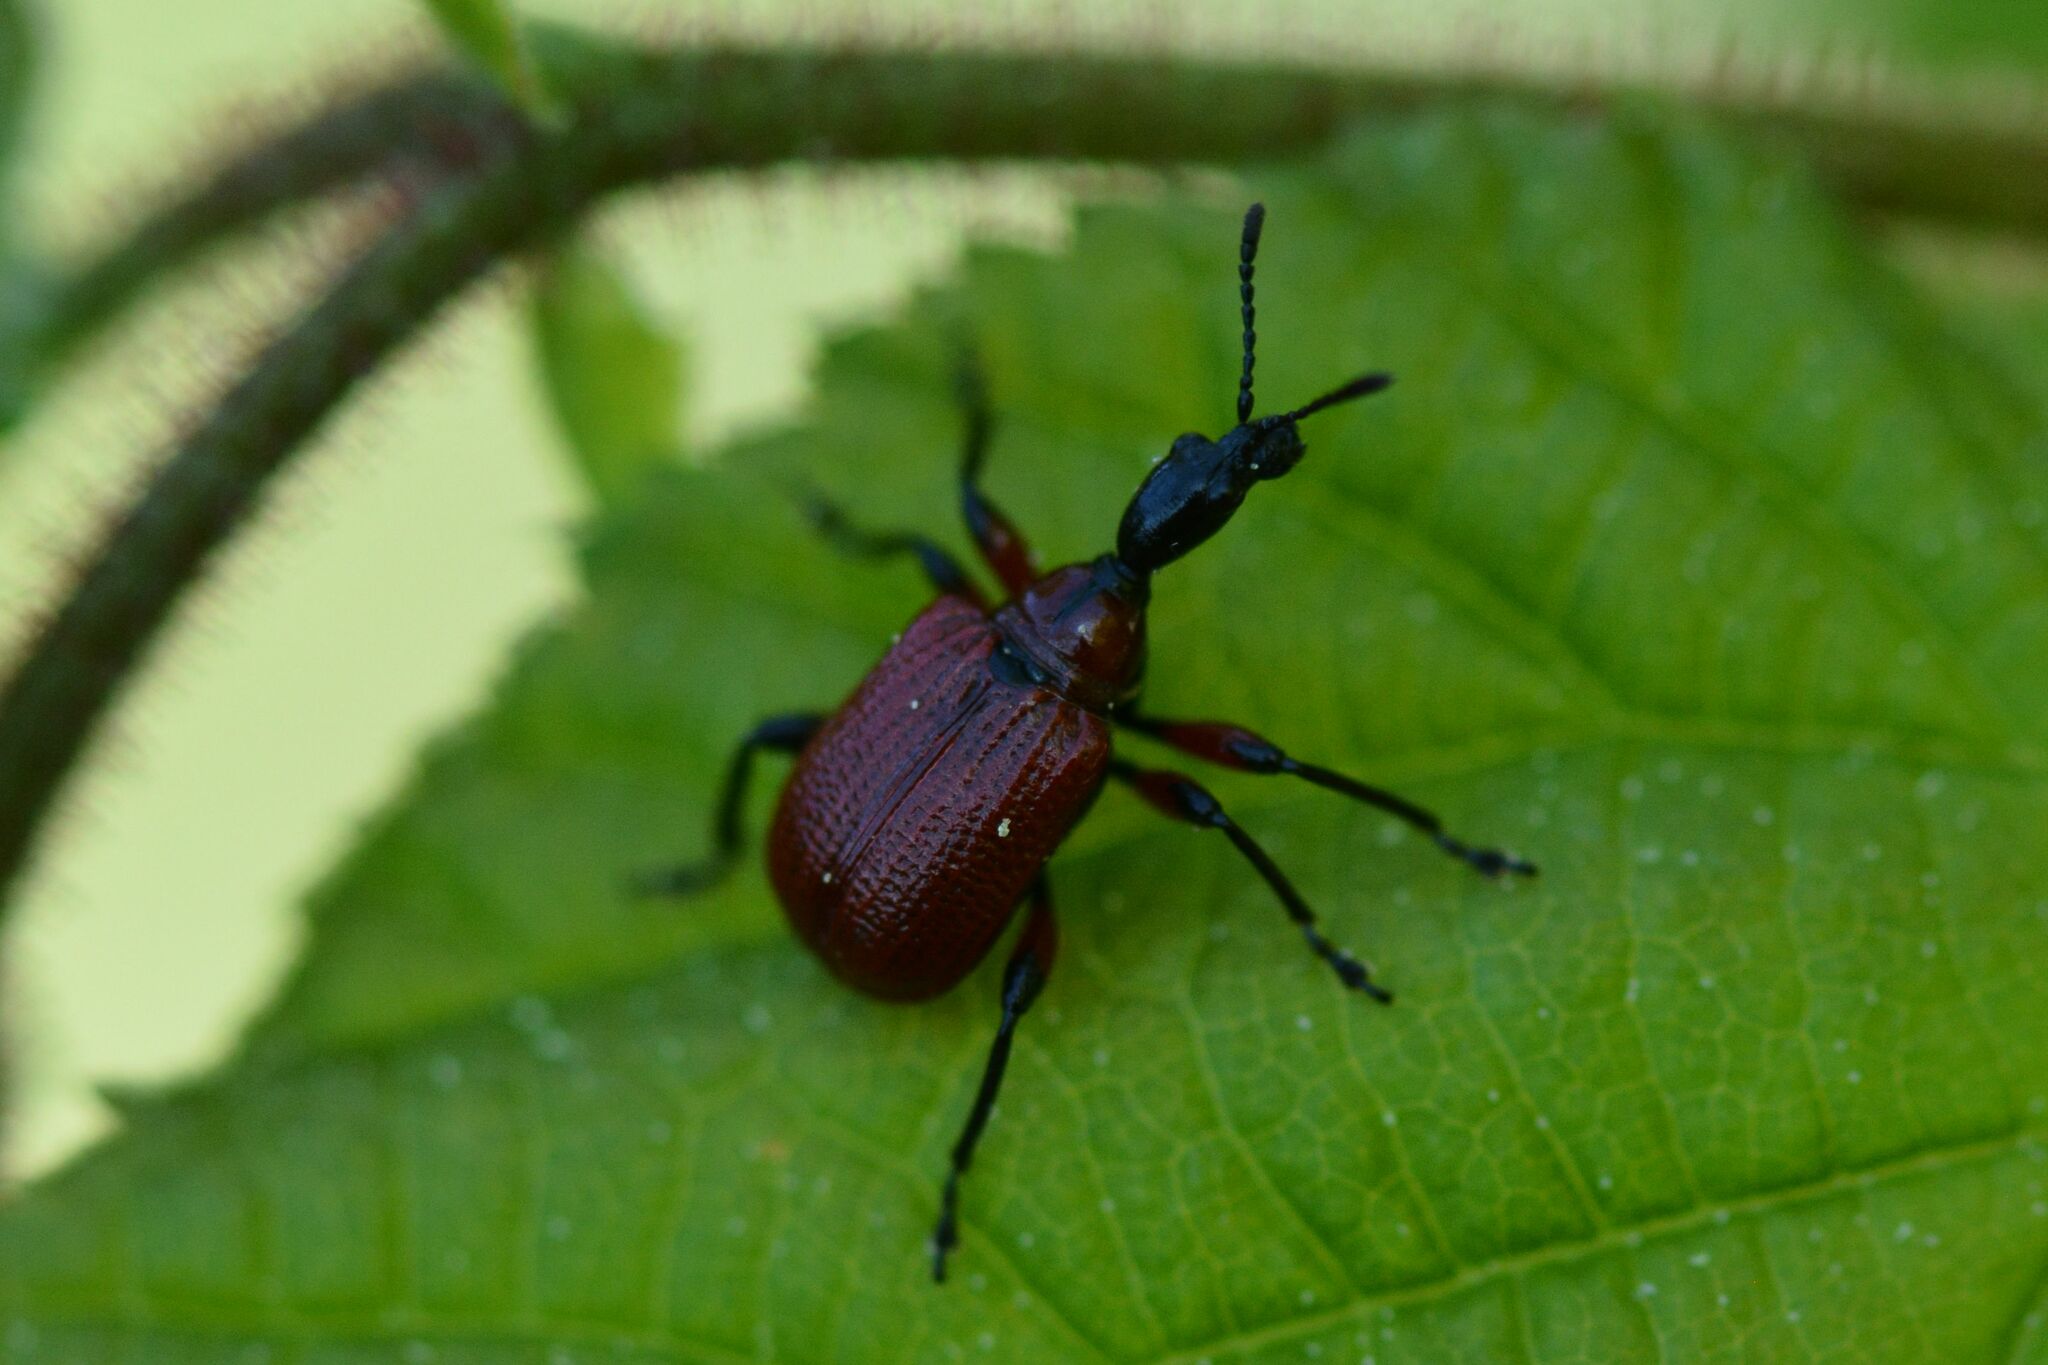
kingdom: Animalia
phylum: Arthropoda
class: Insecta
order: Coleoptera
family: Attelabidae
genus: Apoderus
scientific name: Apoderus coryli
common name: Hazel leaf roller
